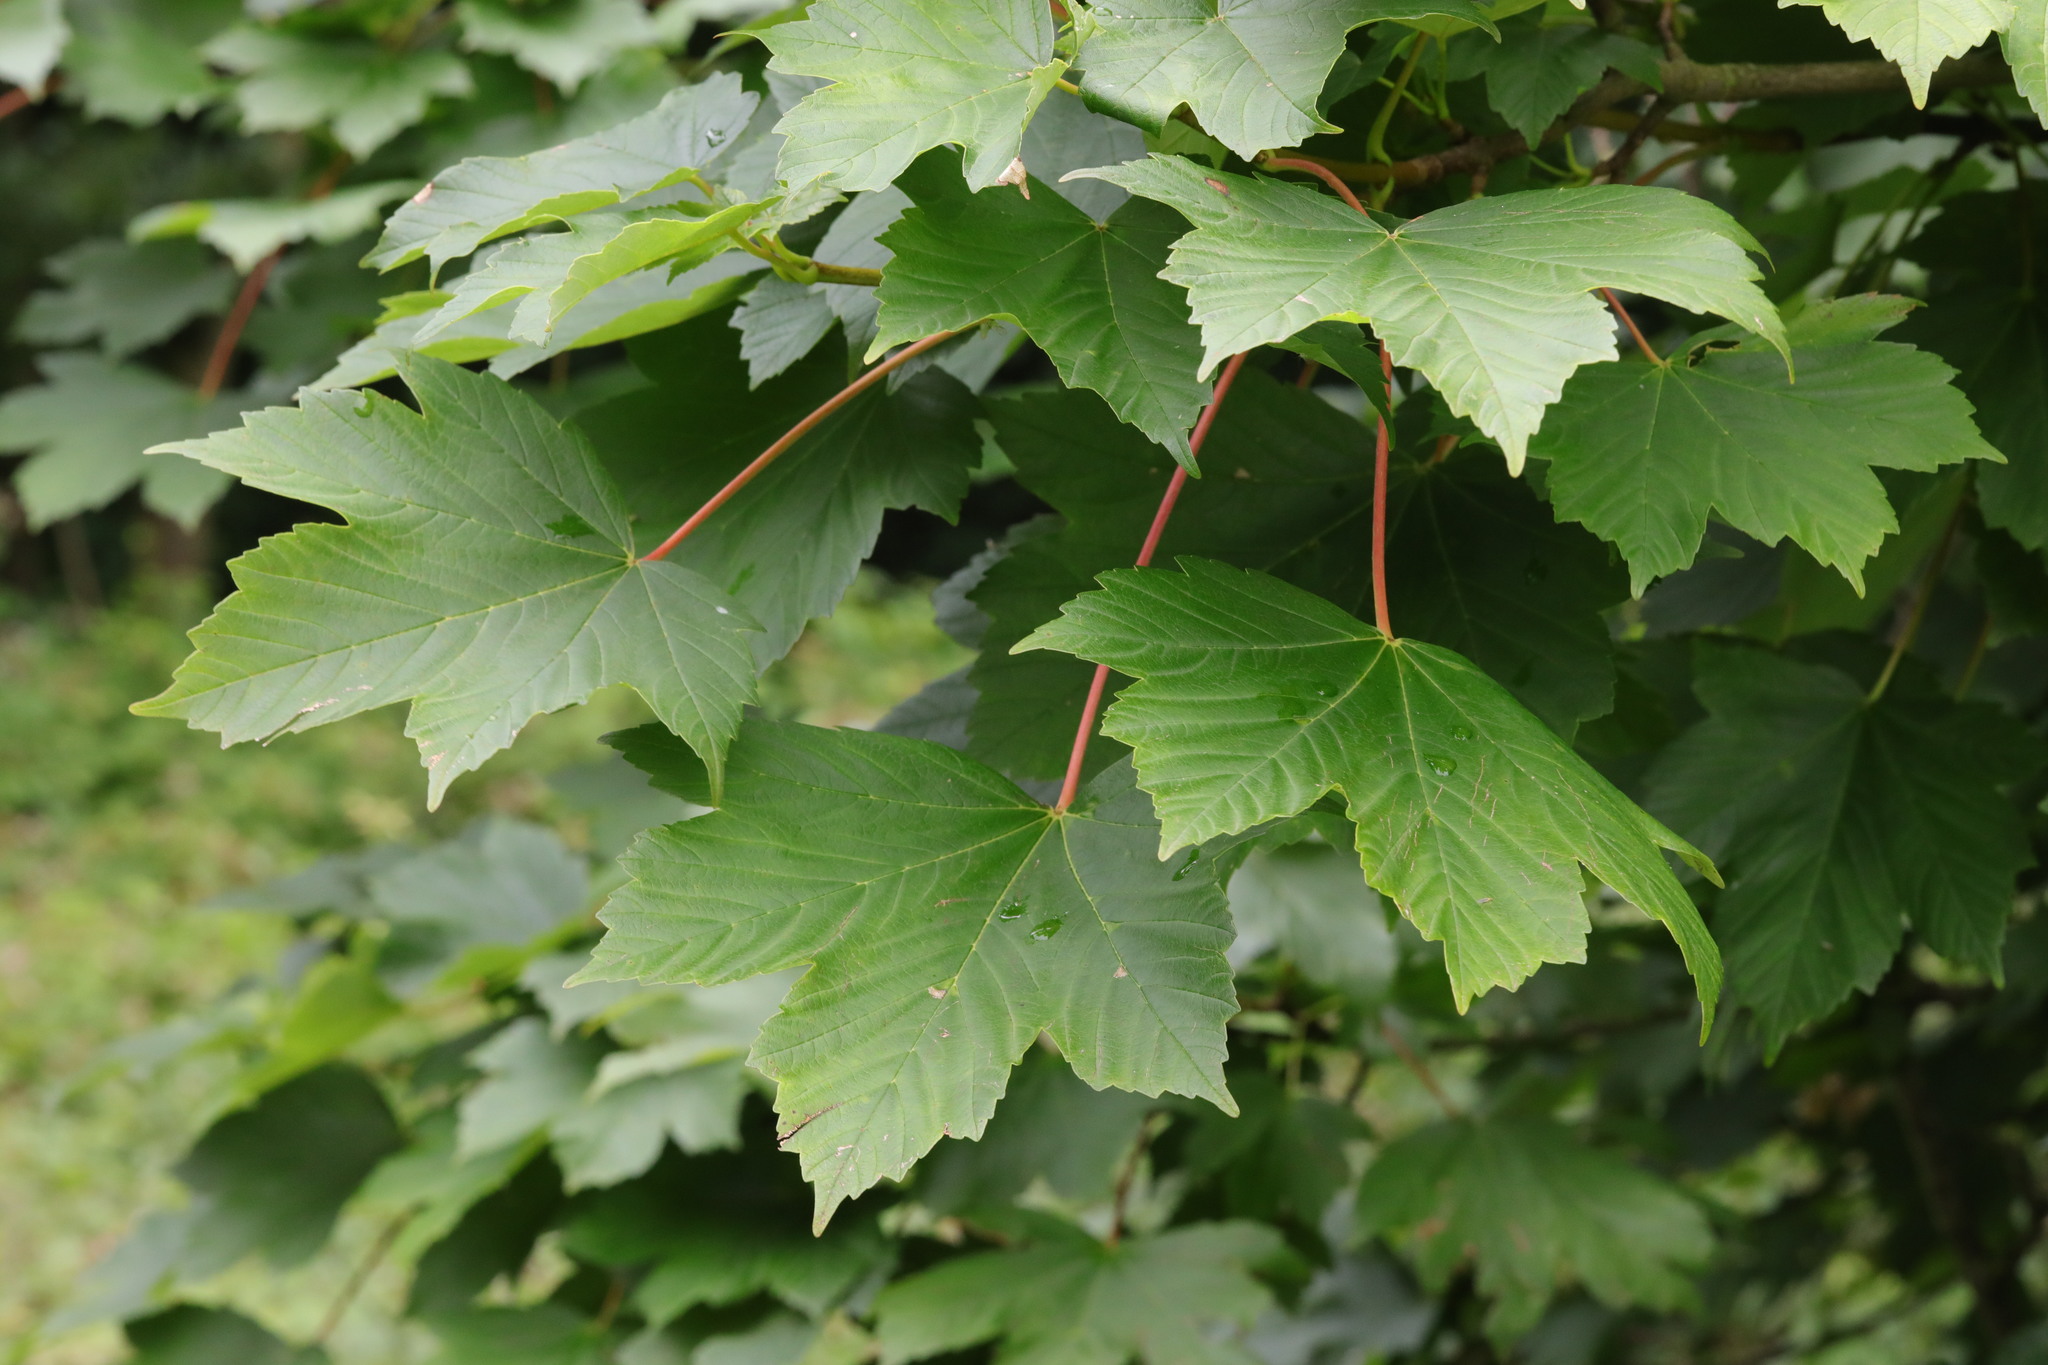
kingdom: Plantae
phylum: Tracheophyta
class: Magnoliopsida
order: Sapindales
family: Sapindaceae
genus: Acer
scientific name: Acer pseudoplatanus
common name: Sycamore
